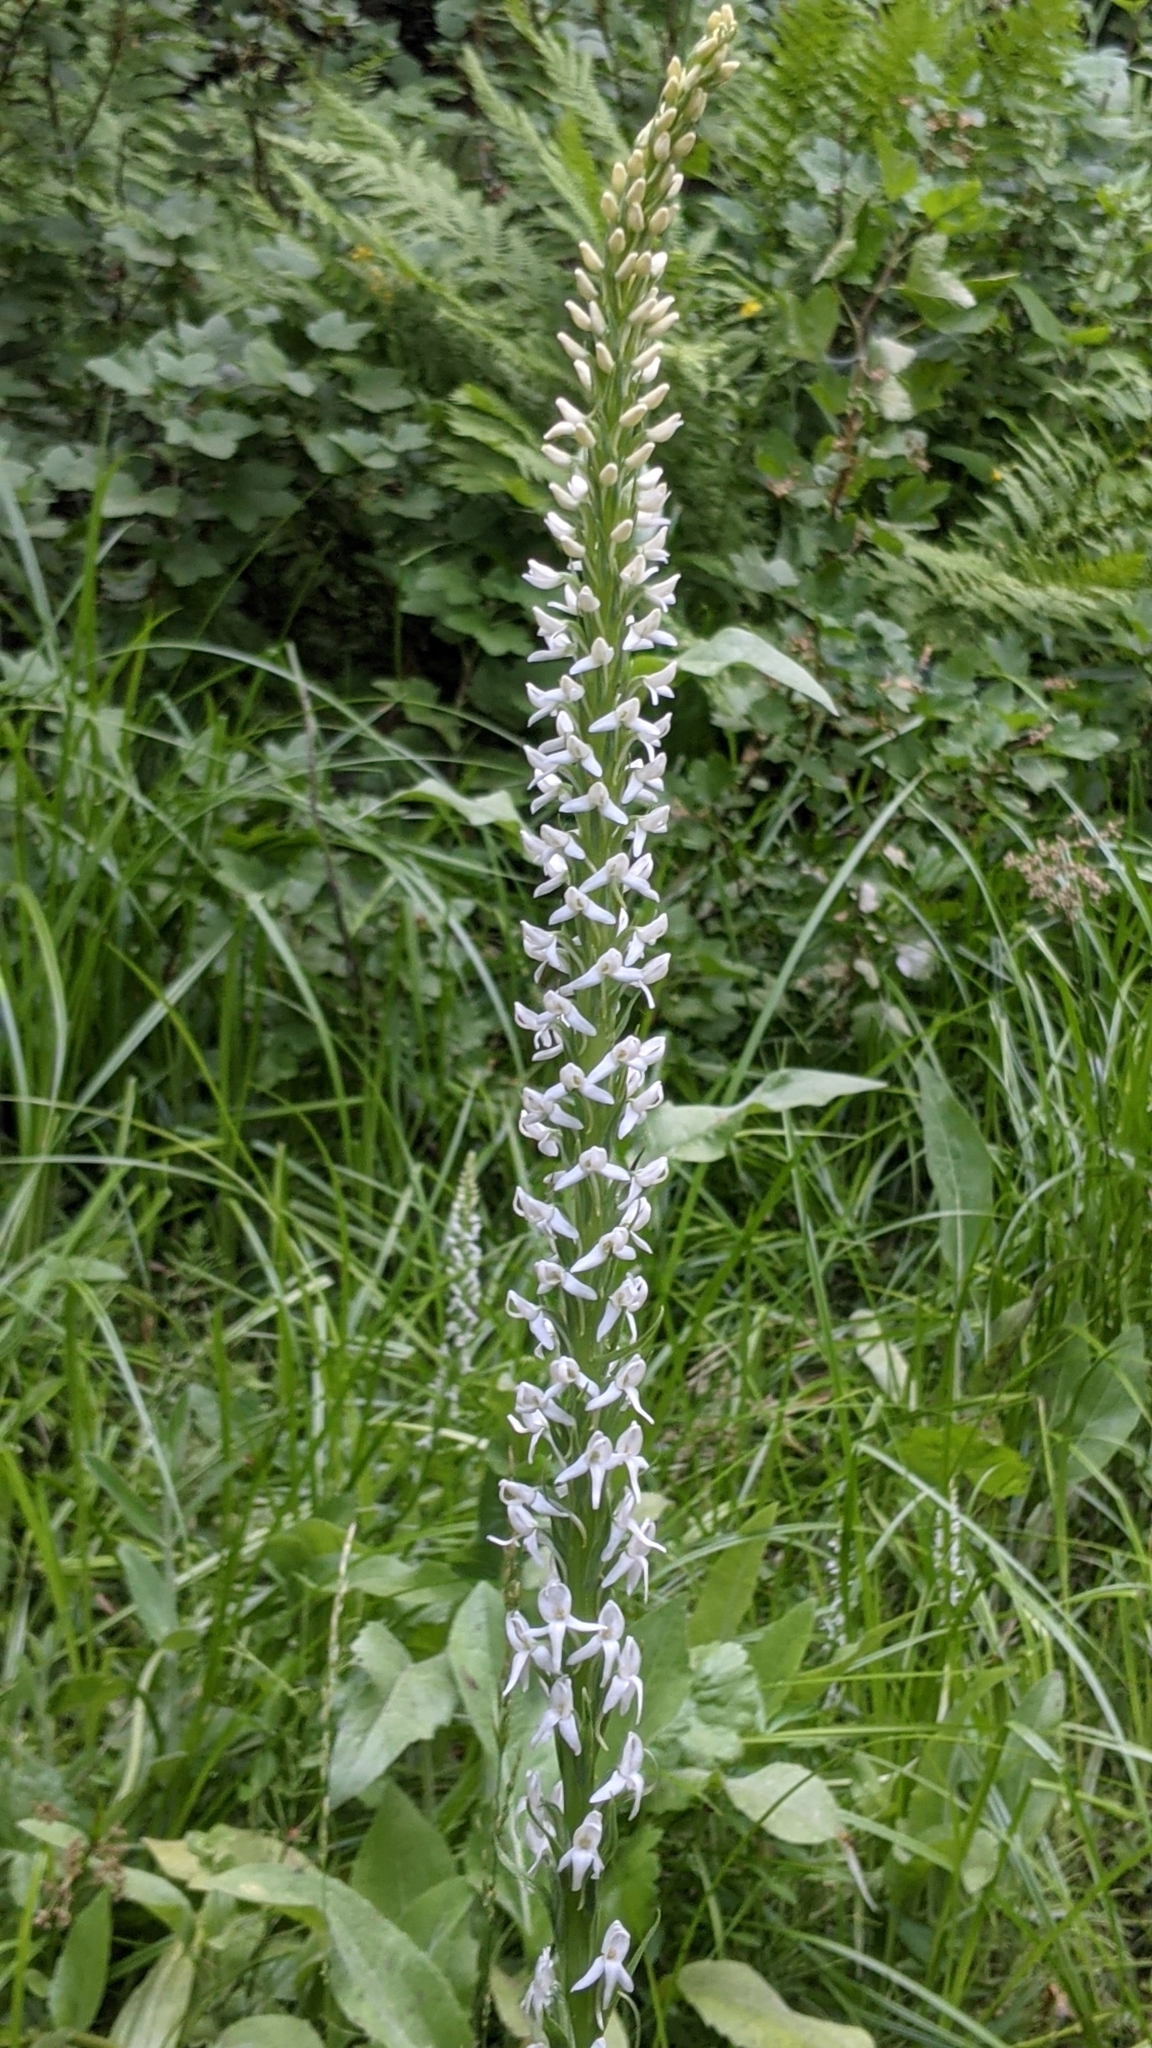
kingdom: Plantae
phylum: Tracheophyta
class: Liliopsida
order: Asparagales
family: Orchidaceae
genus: Platanthera
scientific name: Platanthera dilatata
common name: Bog candles
